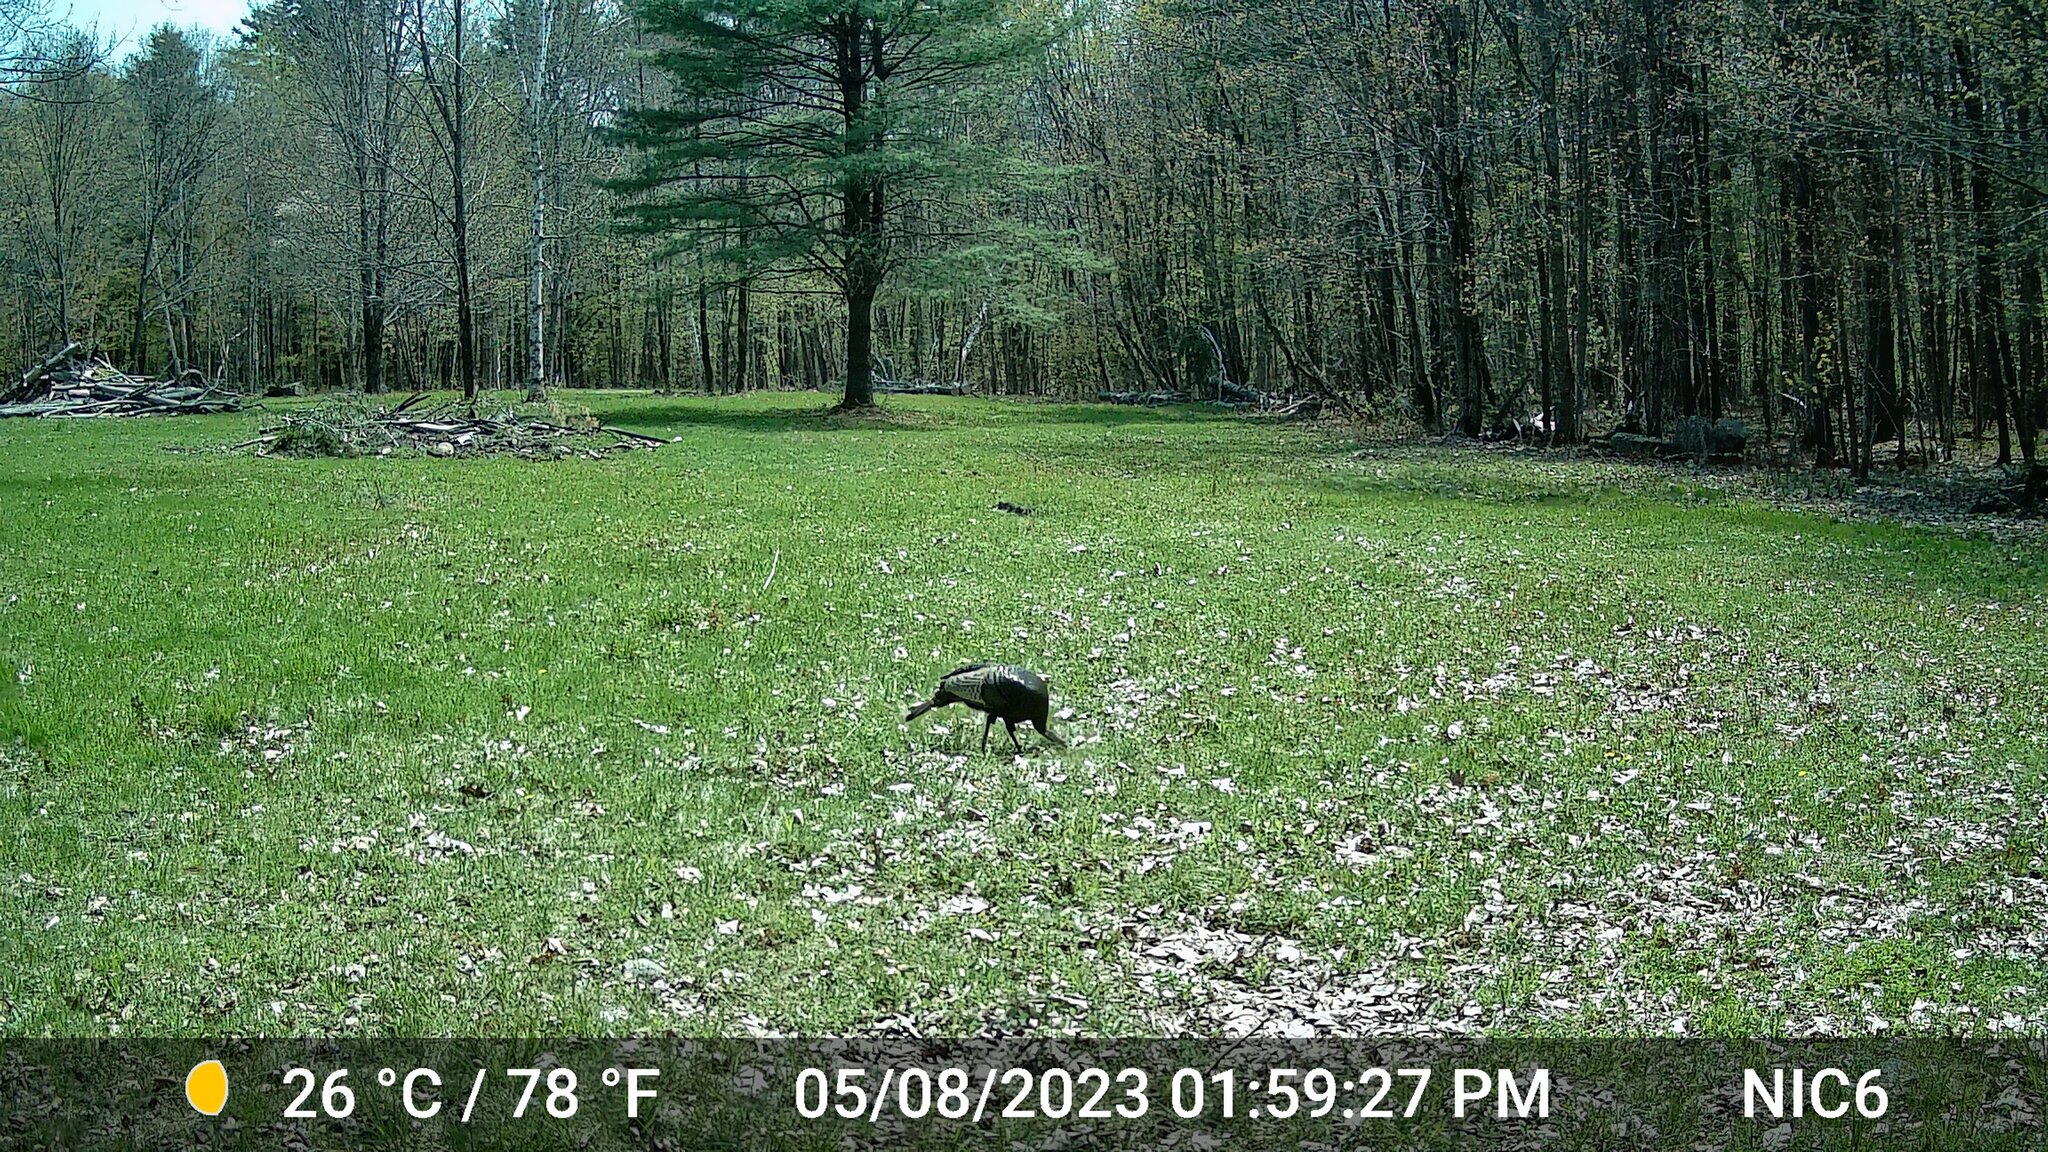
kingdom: Animalia
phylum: Chordata
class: Aves
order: Galliformes
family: Phasianidae
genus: Meleagris
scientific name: Meleagris gallopavo
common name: Wild turkey
